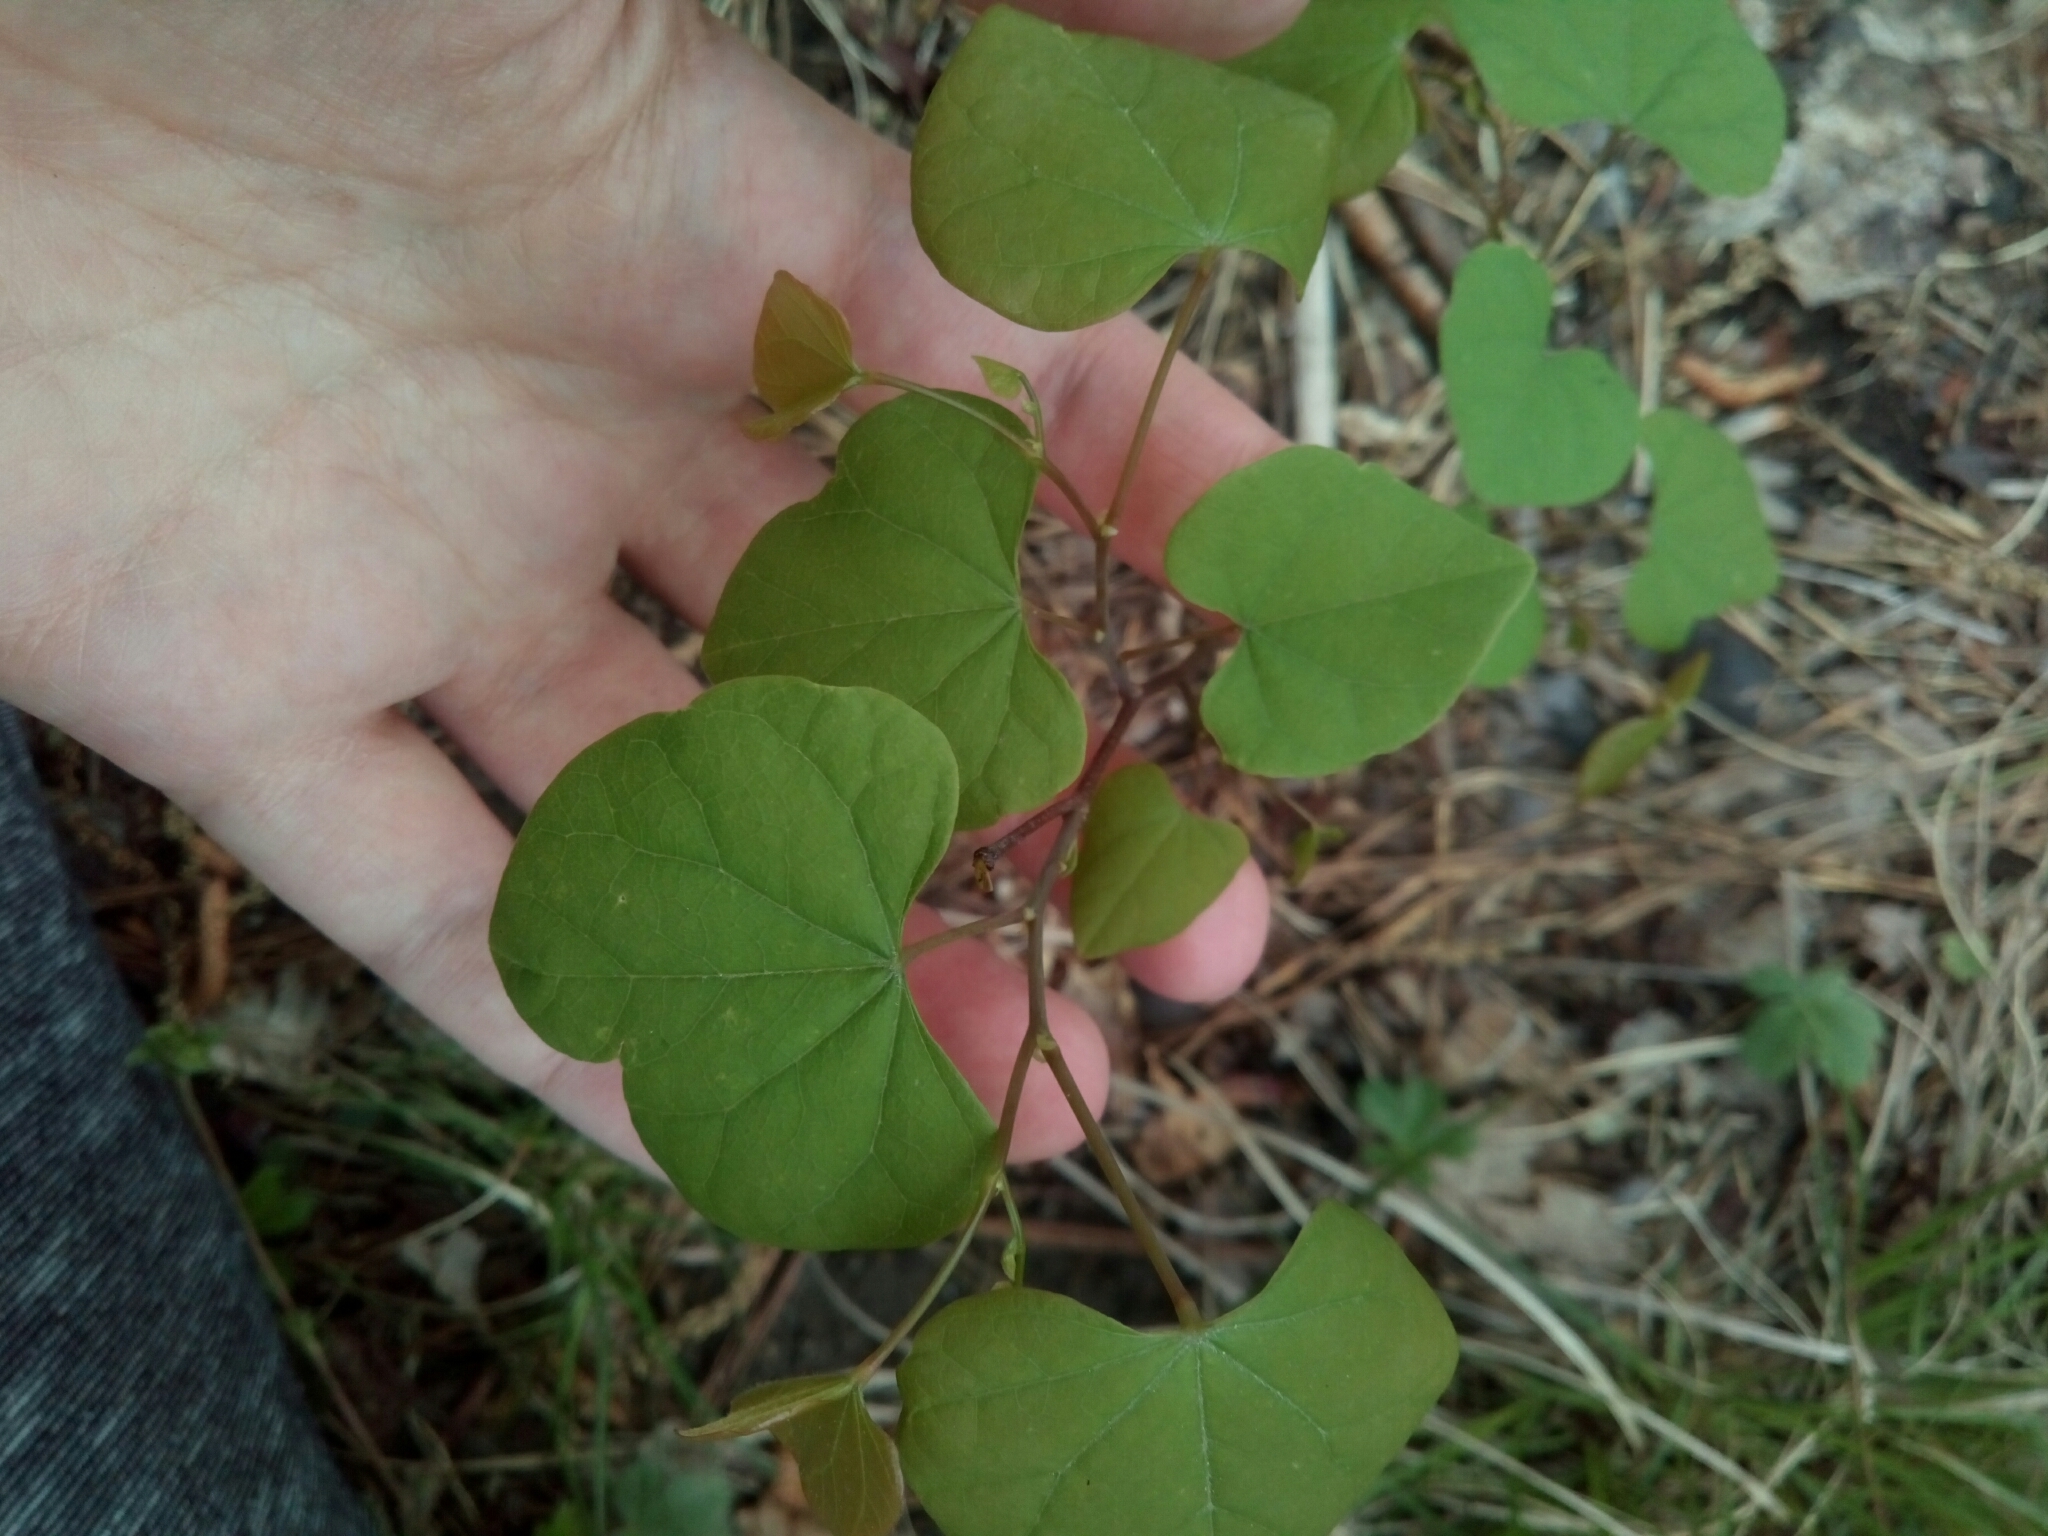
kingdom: Plantae
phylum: Tracheophyta
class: Magnoliopsida
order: Fabales
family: Fabaceae
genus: Cercis
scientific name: Cercis canadensis
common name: Eastern redbud
